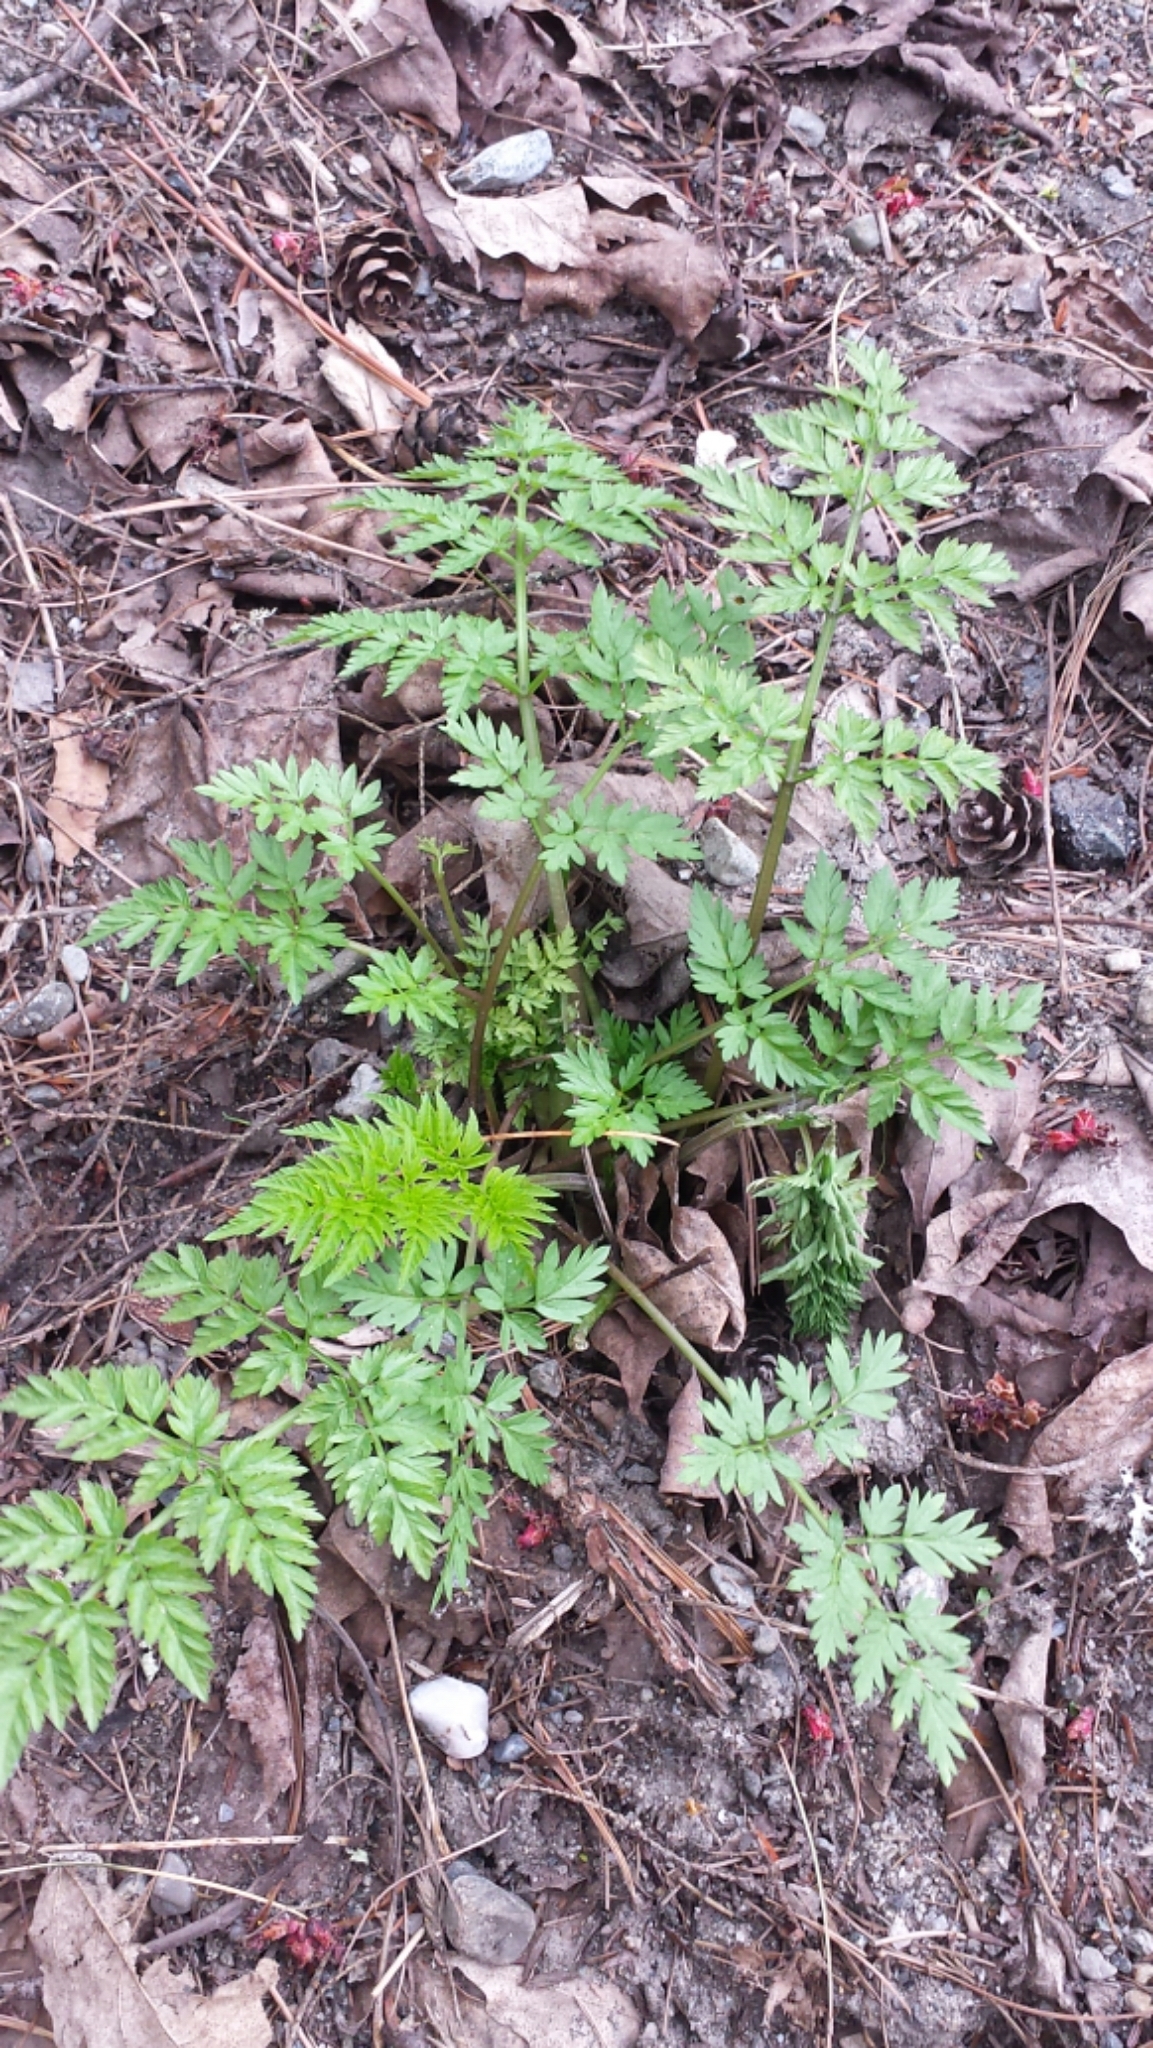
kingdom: Plantae
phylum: Tracheophyta
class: Magnoliopsida
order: Apiales
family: Apiaceae
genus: Anthriscus
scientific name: Anthriscus sylvestris
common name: Cow parsley
